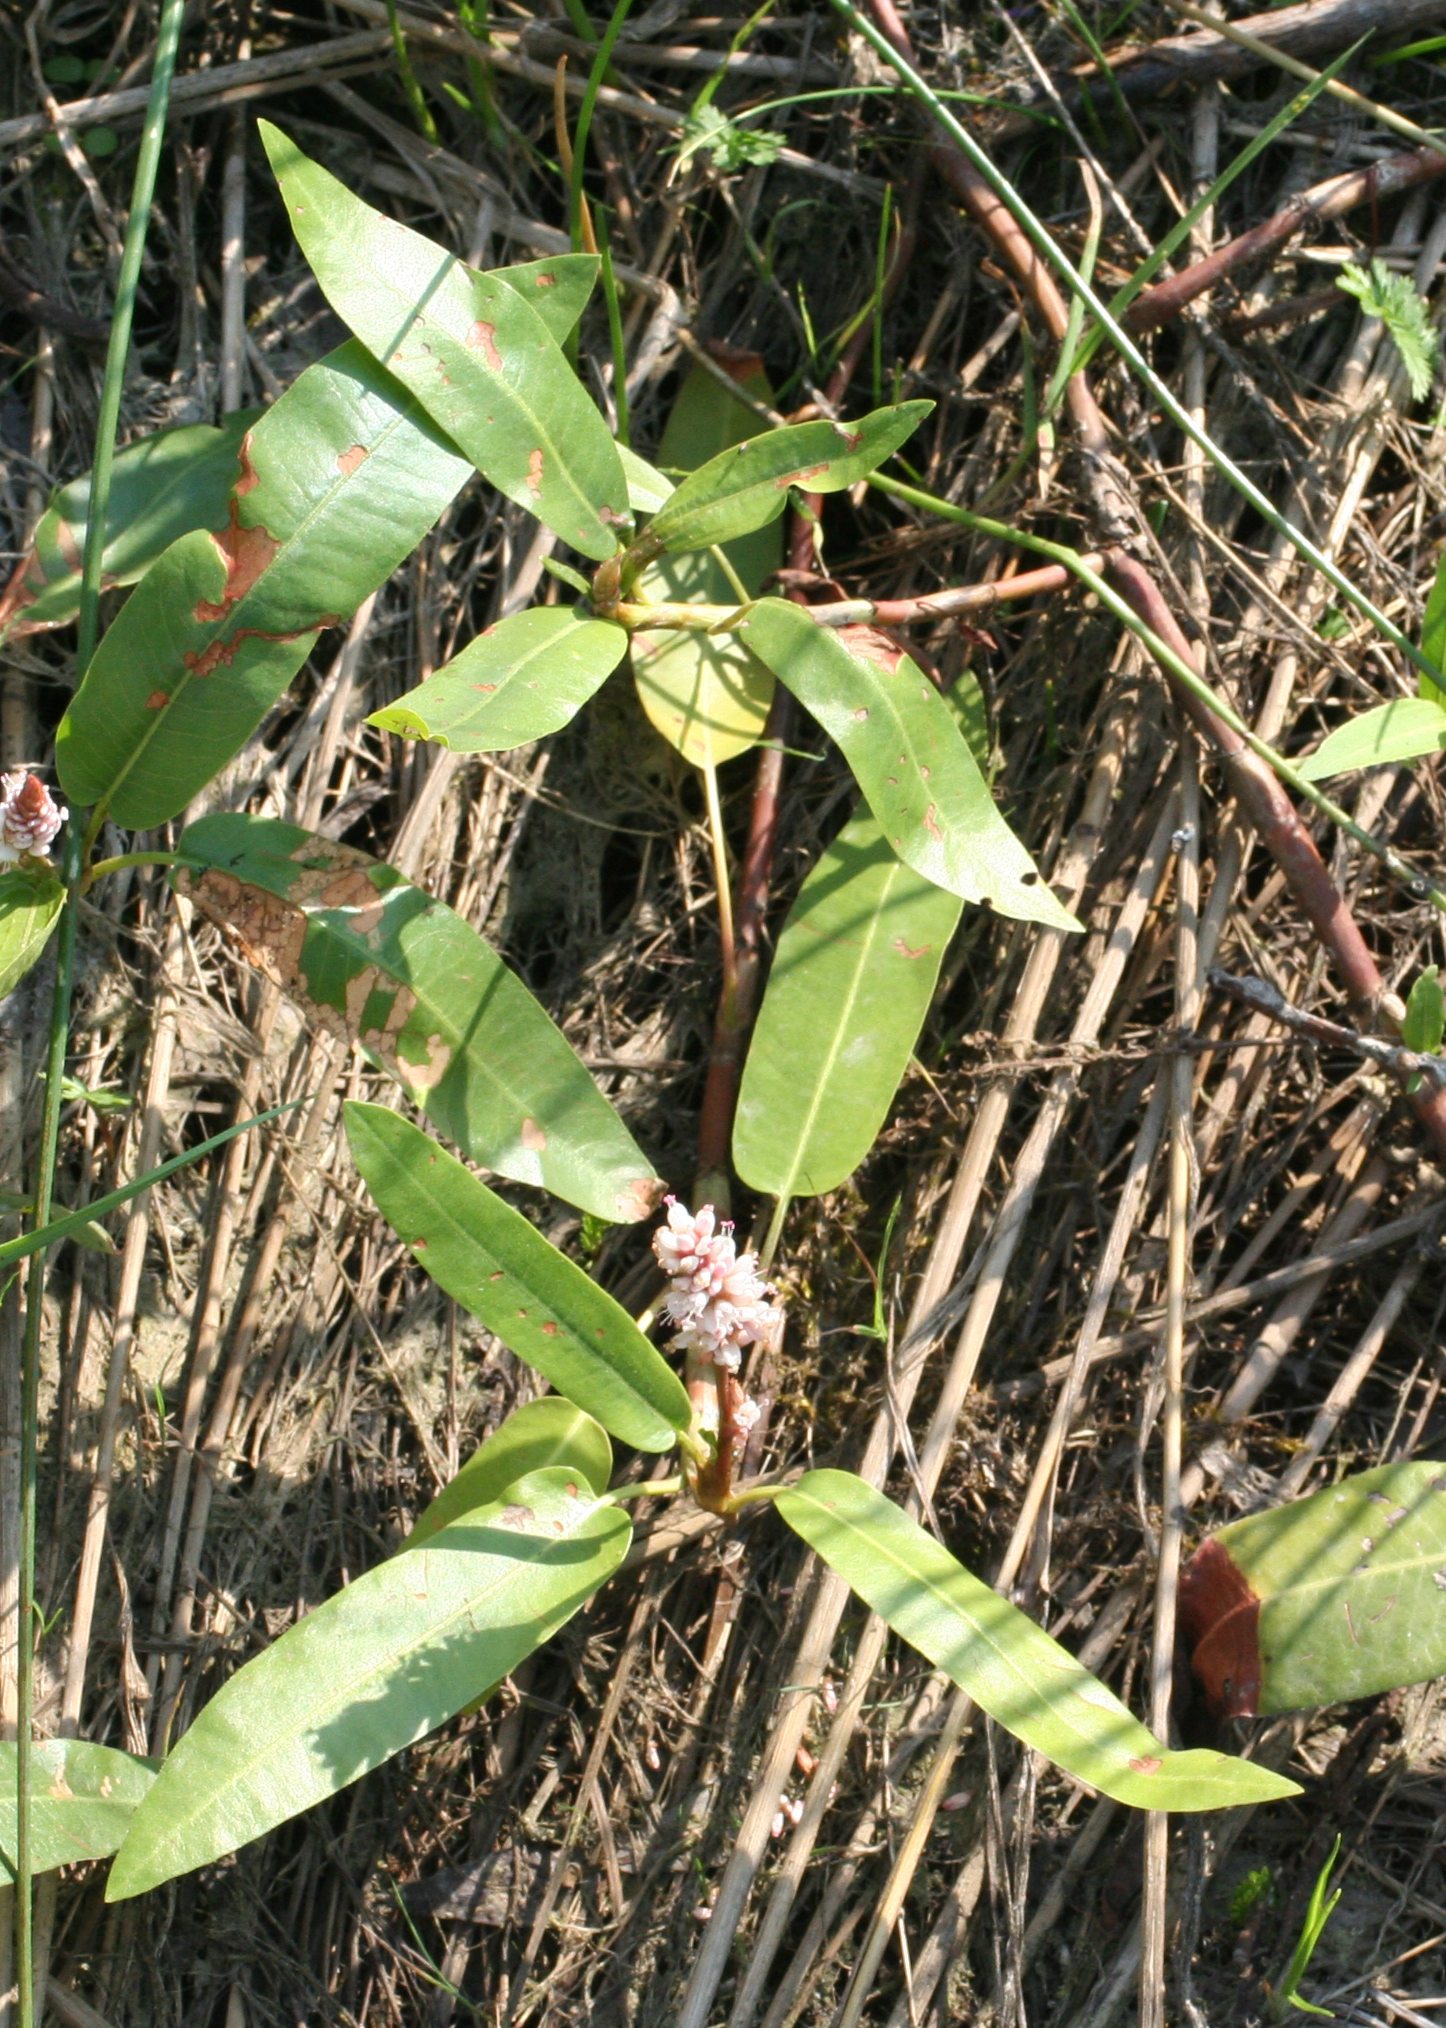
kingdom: Plantae
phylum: Tracheophyta
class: Magnoliopsida
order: Caryophyllales
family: Polygonaceae
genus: Persicaria
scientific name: Persicaria amphibia
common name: Amphibious bistort
